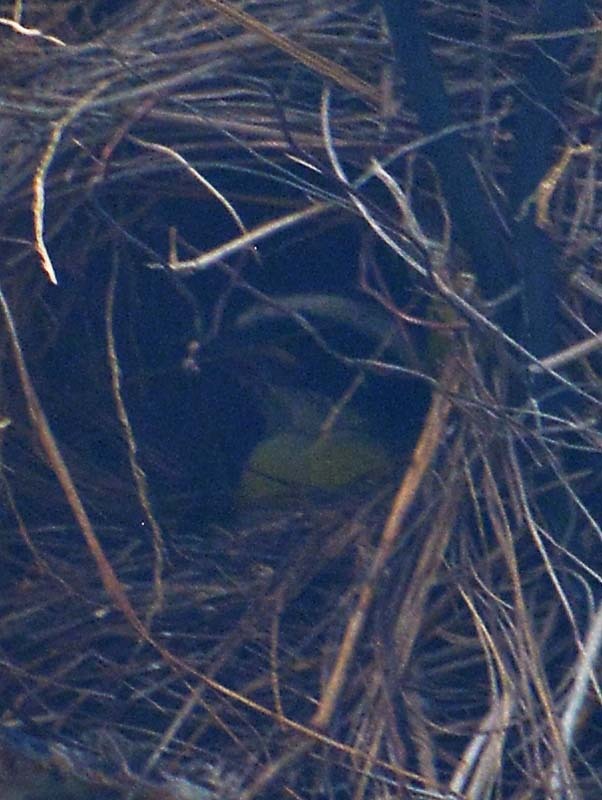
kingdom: Animalia
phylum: Chordata
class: Aves
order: Passeriformes
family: Tyrannidae
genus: Pitangus
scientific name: Pitangus sulphuratus
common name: Great kiskadee
